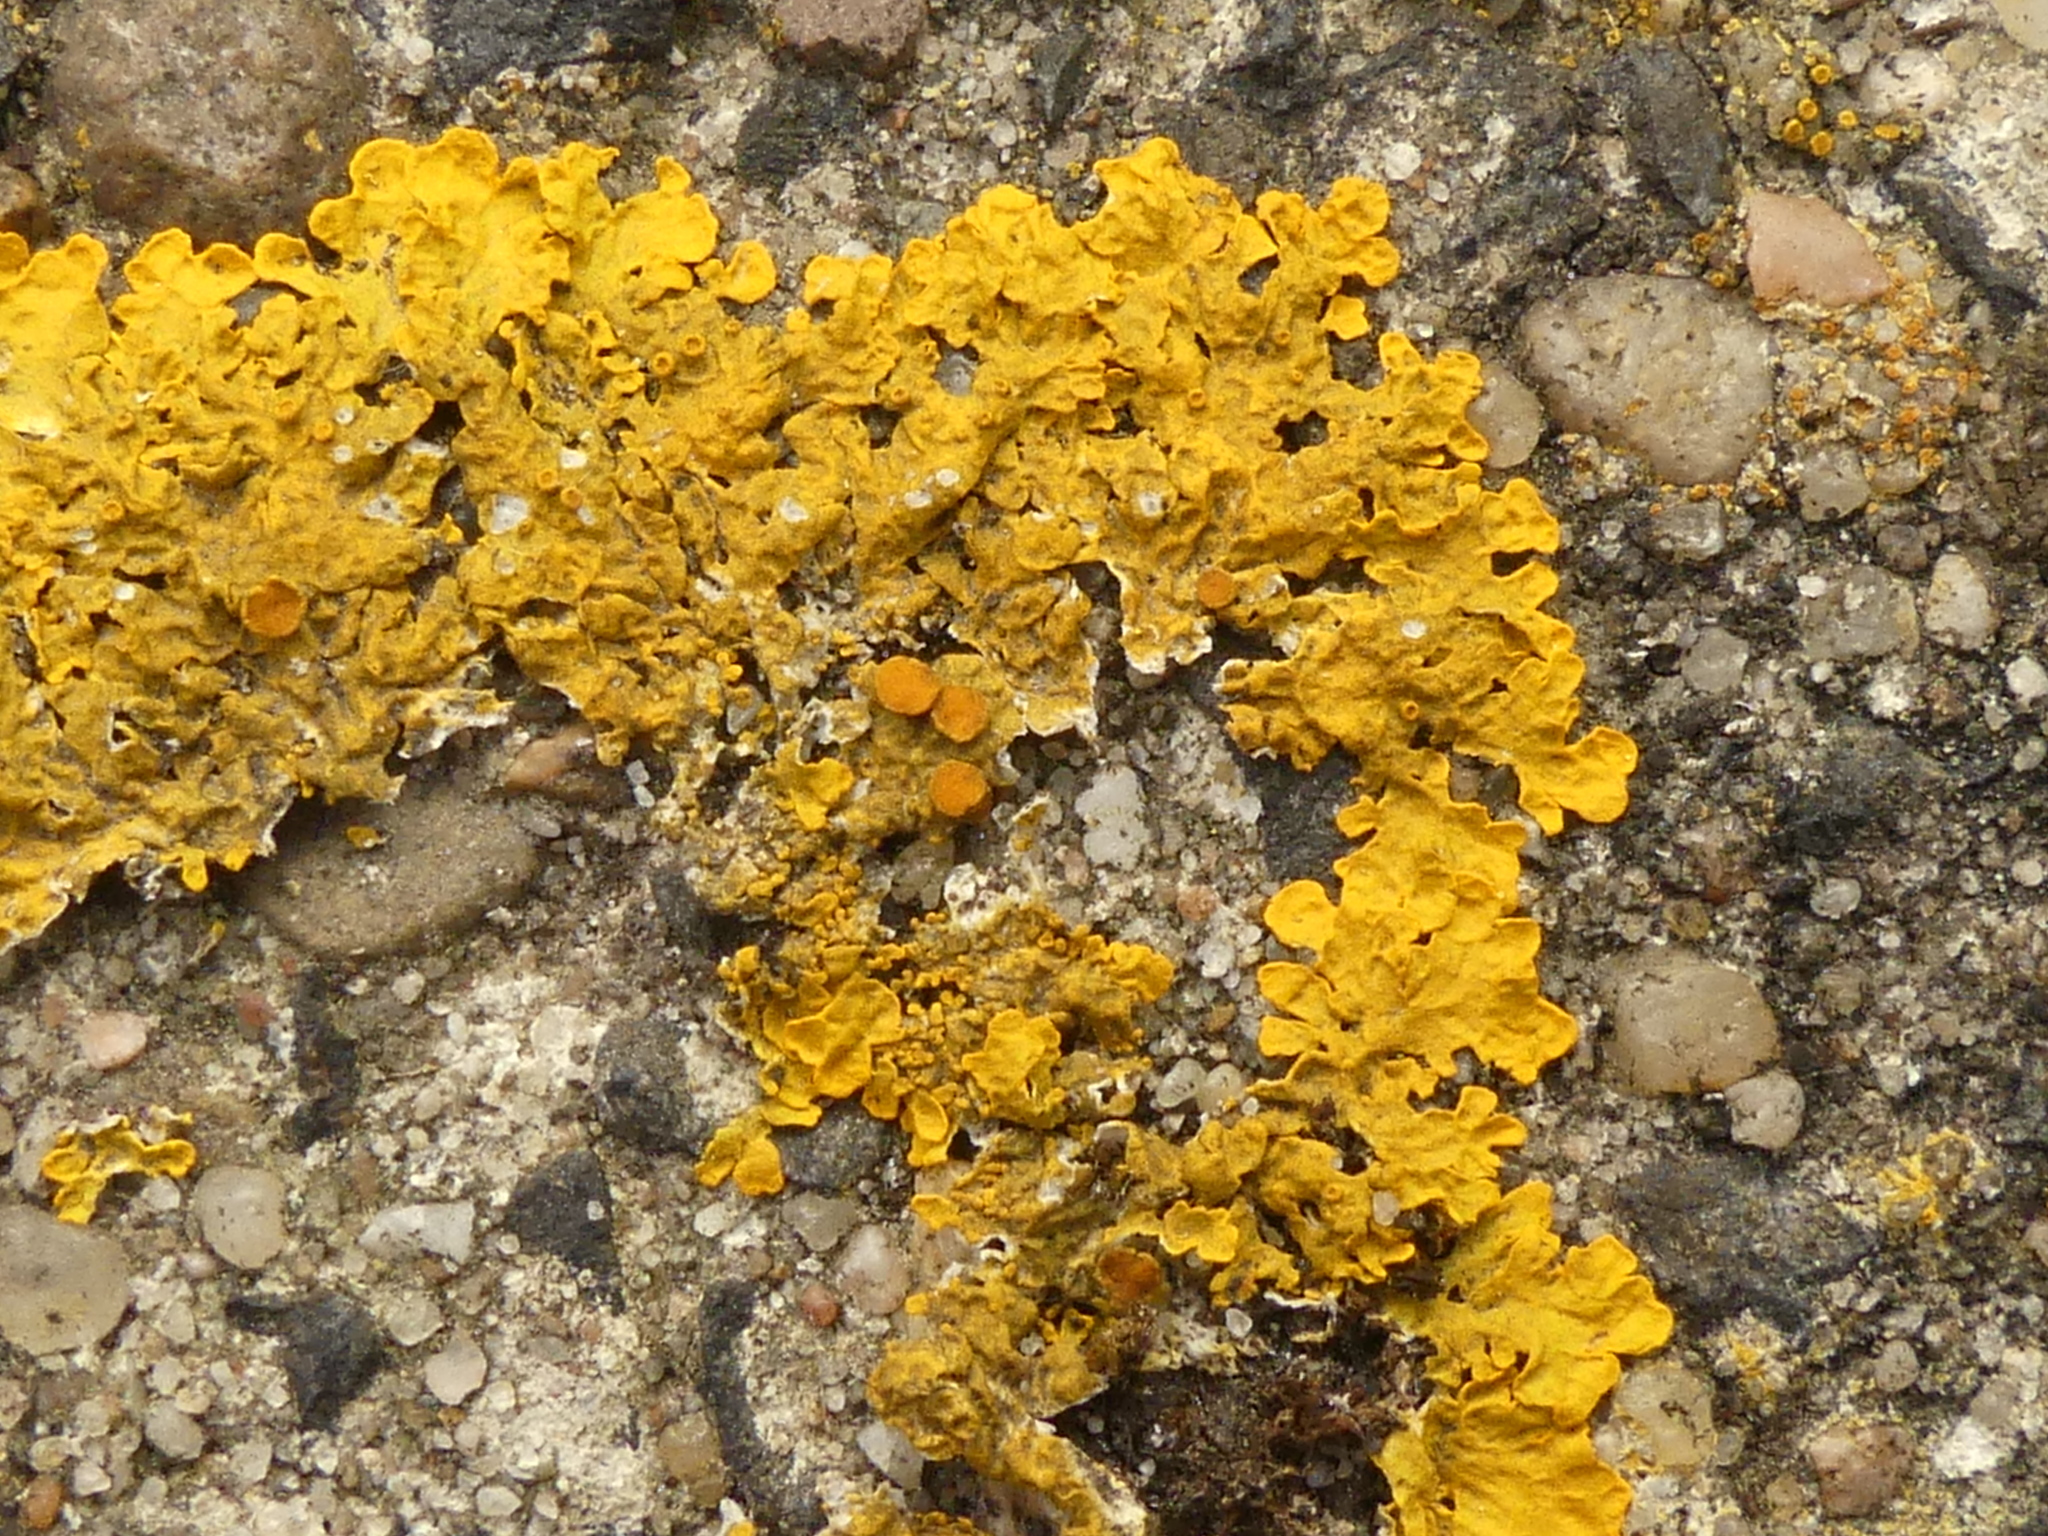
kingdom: Fungi
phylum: Ascomycota
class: Lecanoromycetes
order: Teloschistales
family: Teloschistaceae
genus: Xanthoria
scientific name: Xanthoria parietina
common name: Common orange lichen
